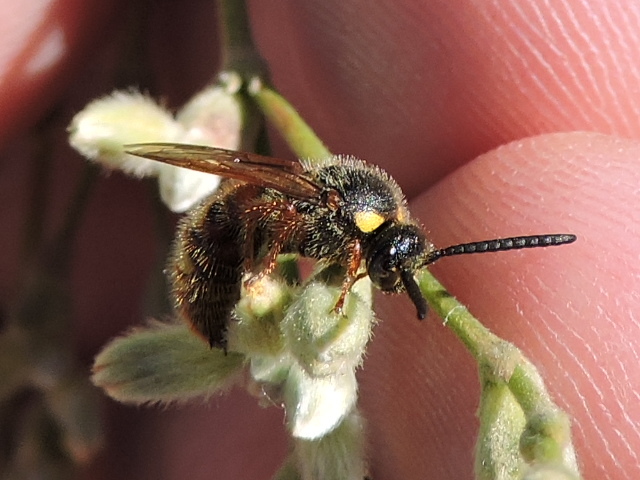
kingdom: Animalia
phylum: Arthropoda
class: Insecta
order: Hymenoptera
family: Scoliidae
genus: Scolia
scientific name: Scolia nobilitata
